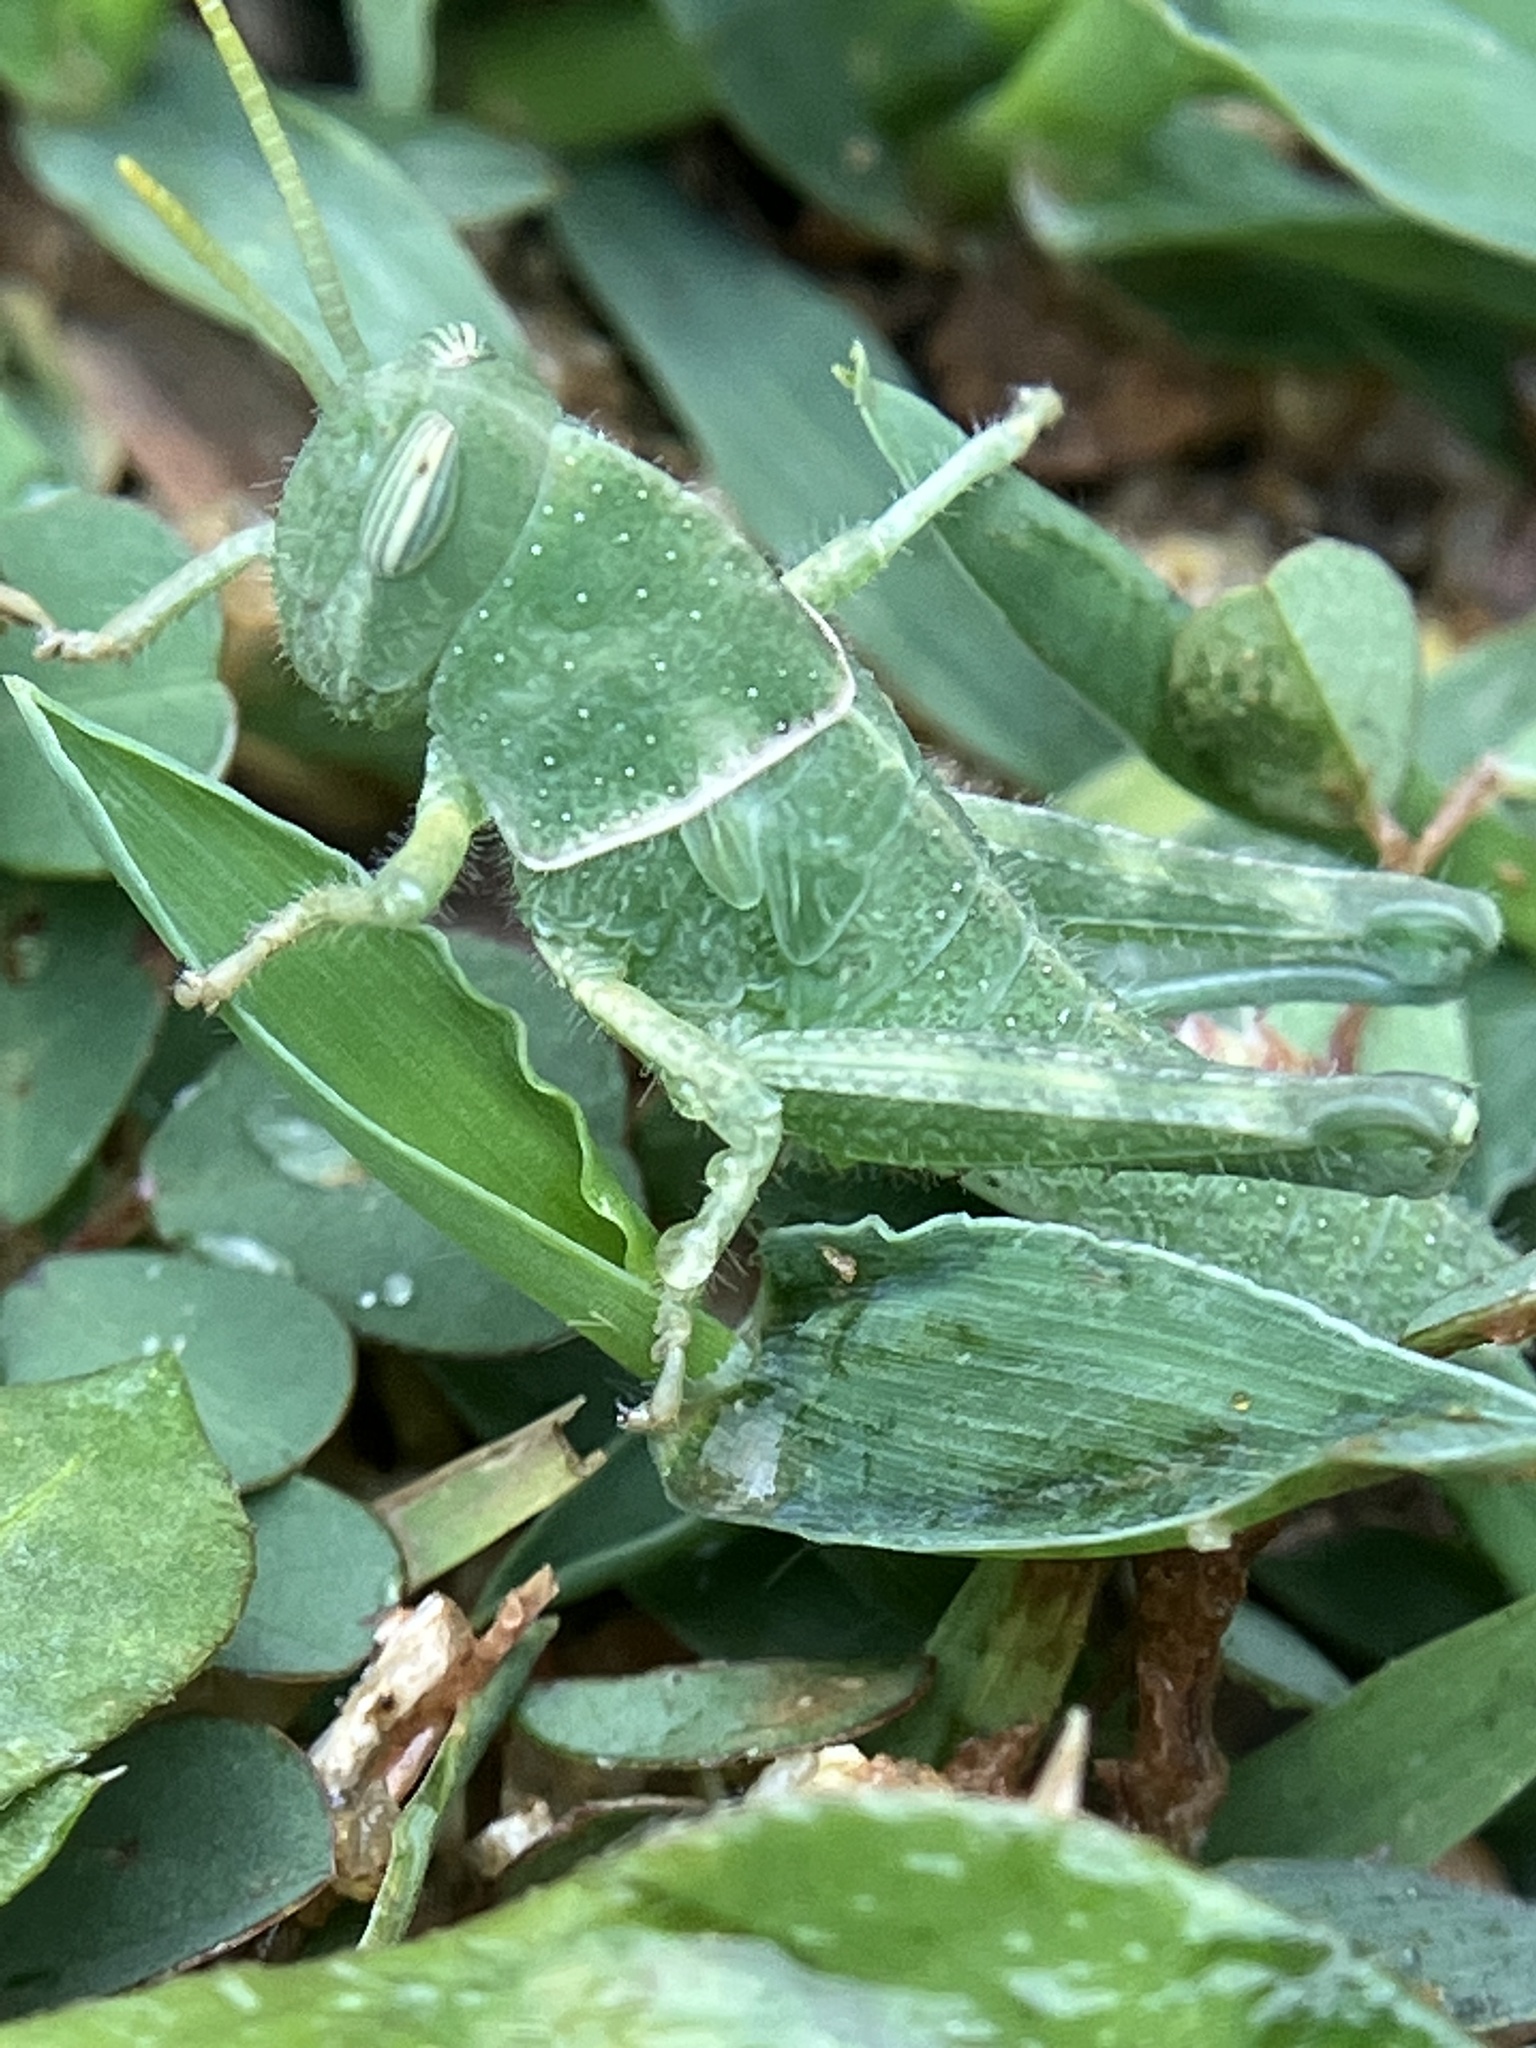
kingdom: Animalia
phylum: Arthropoda
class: Insecta
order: Orthoptera
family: Acrididae
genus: Cyrtacanthacris
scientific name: Cyrtacanthacris tatarica
